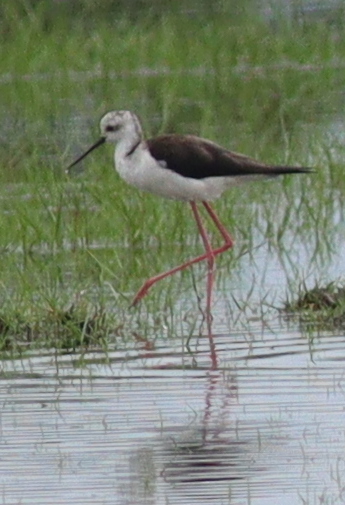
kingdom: Animalia
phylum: Chordata
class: Aves
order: Charadriiformes
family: Recurvirostridae
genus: Himantopus
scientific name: Himantopus himantopus
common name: Black-winged stilt
